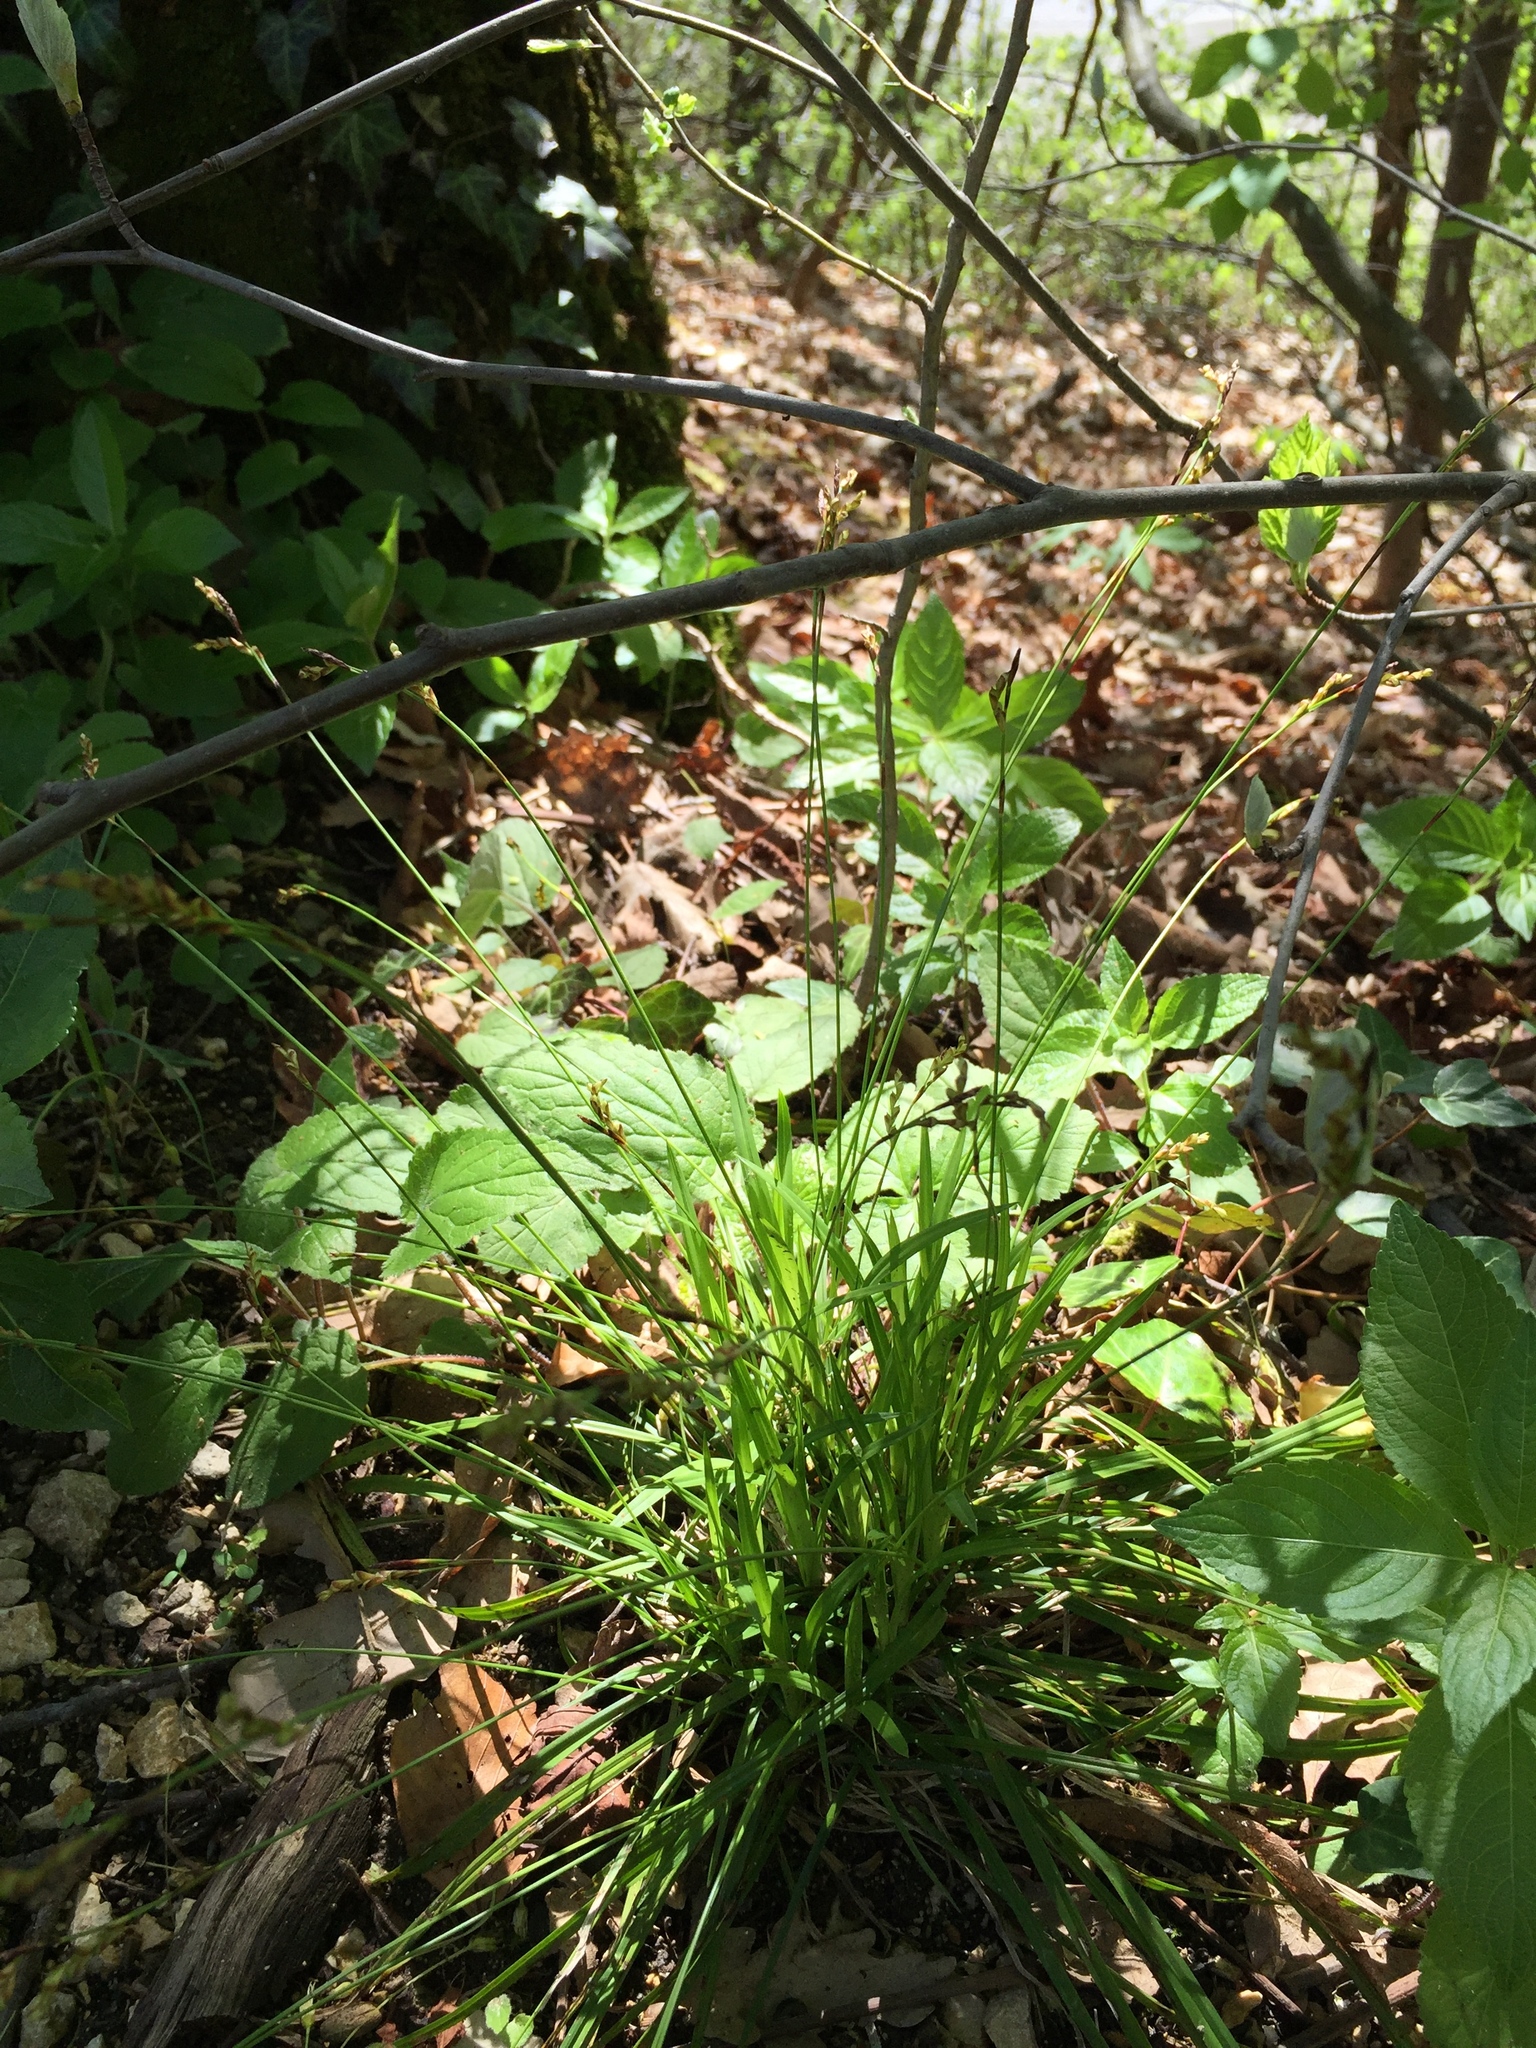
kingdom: Plantae
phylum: Tracheophyta
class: Liliopsida
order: Poales
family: Cyperaceae
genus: Carex
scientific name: Carex digitata
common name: Fingered sedge
